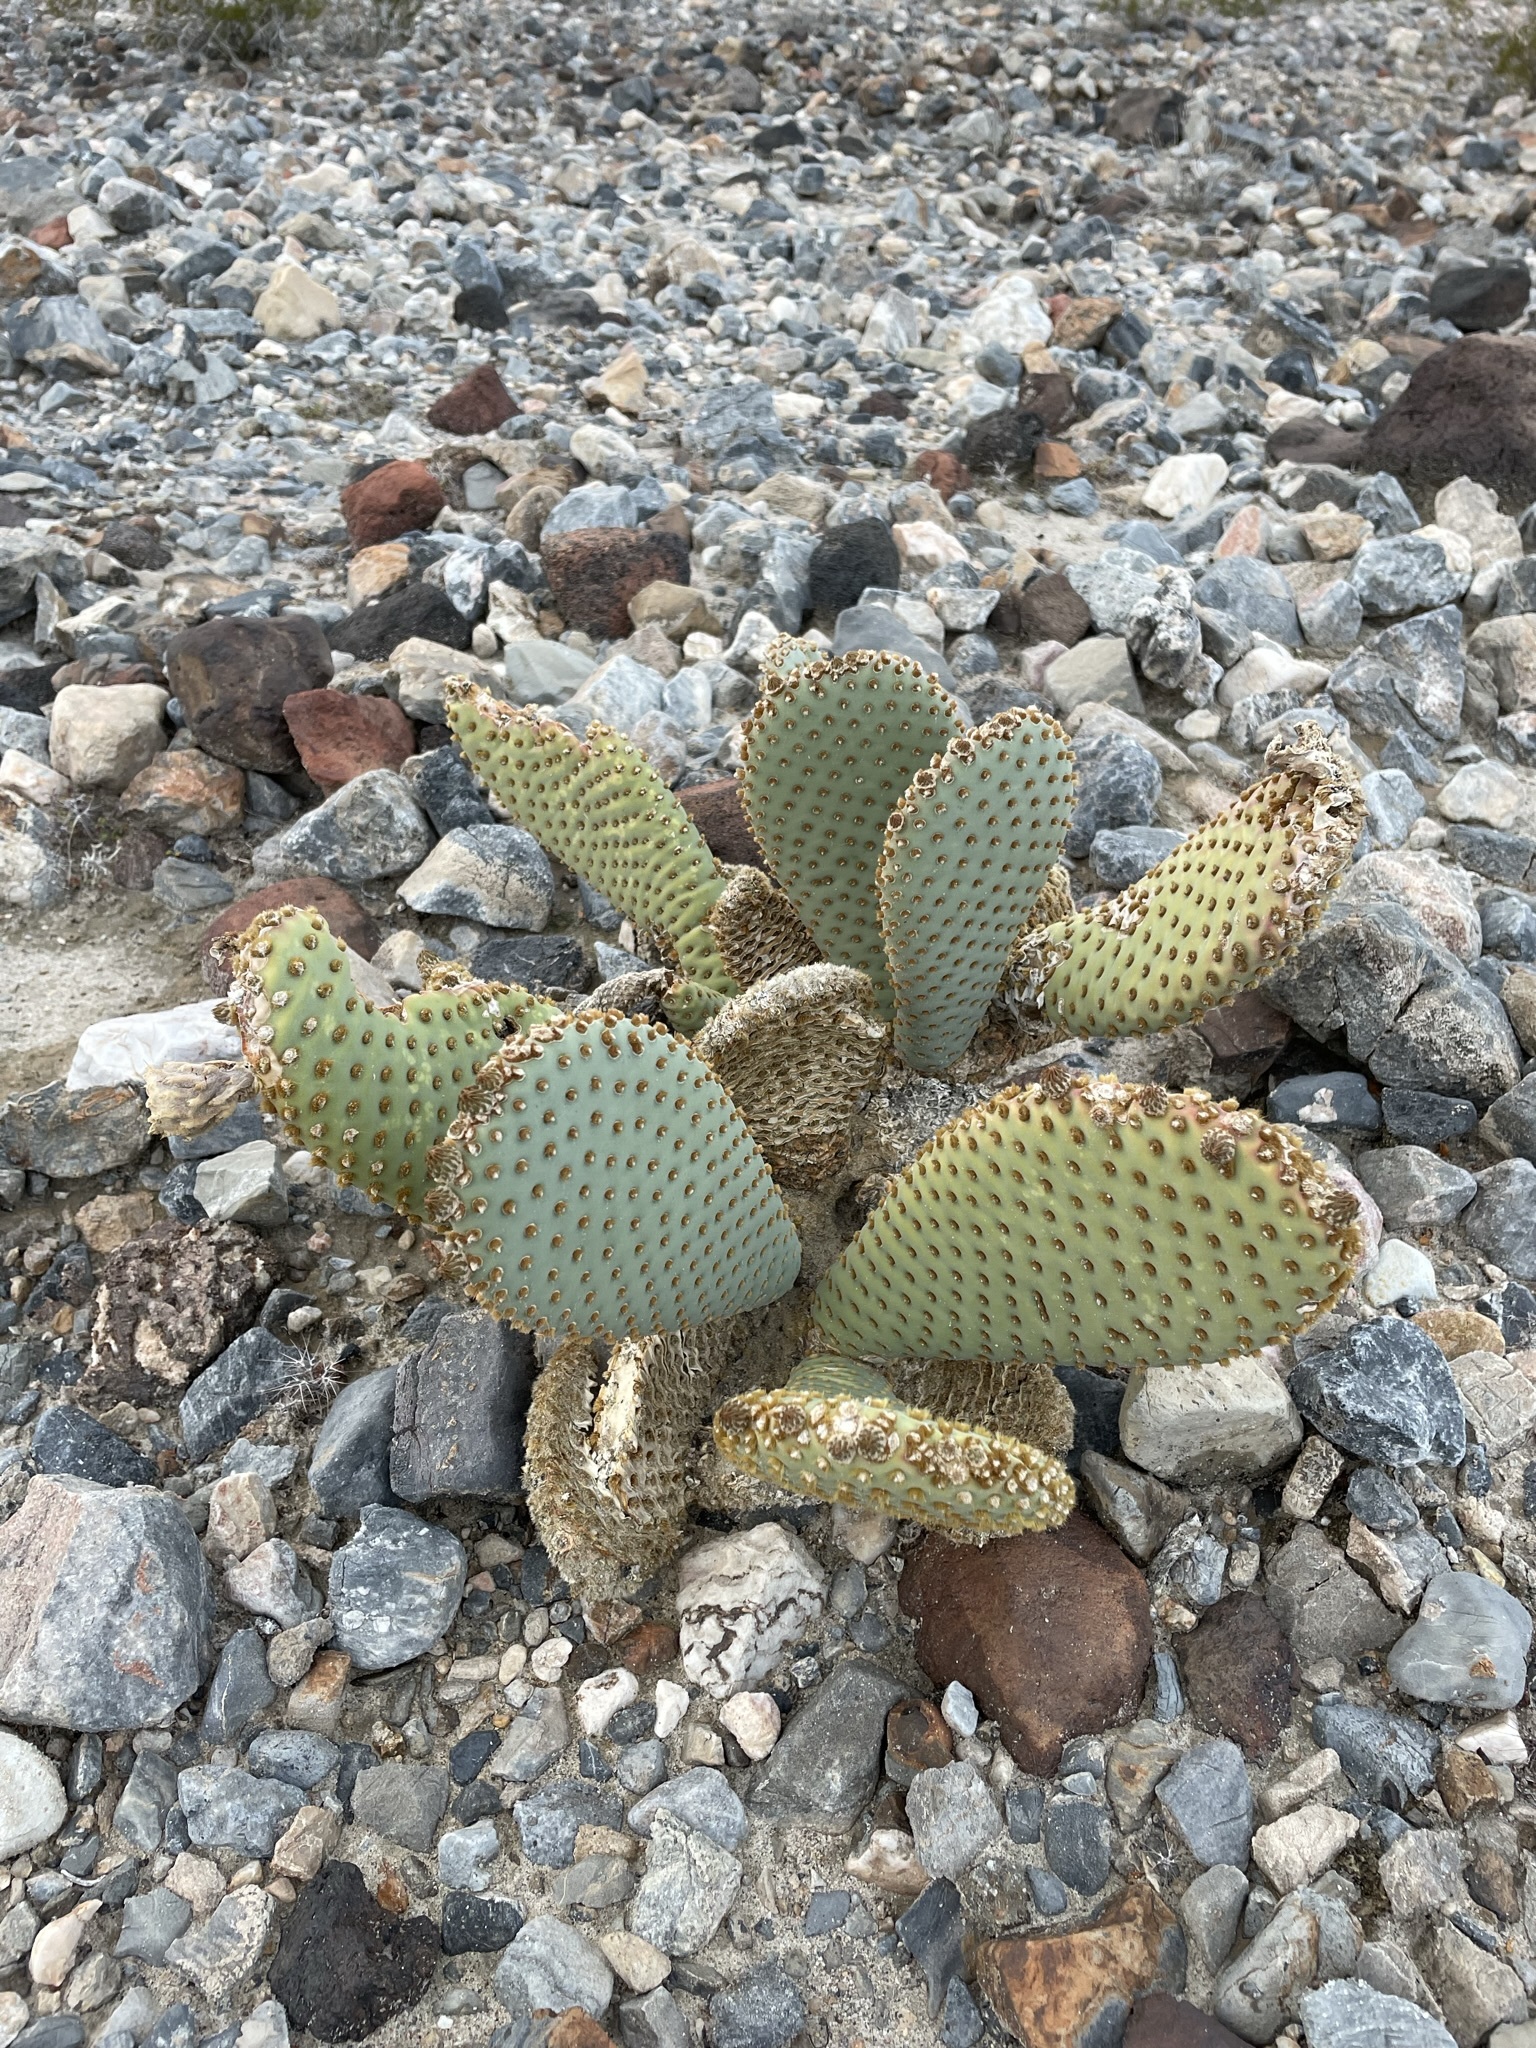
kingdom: Plantae
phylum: Tracheophyta
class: Magnoliopsida
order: Caryophyllales
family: Cactaceae
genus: Opuntia
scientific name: Opuntia basilaris
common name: Beavertail prickly-pear
